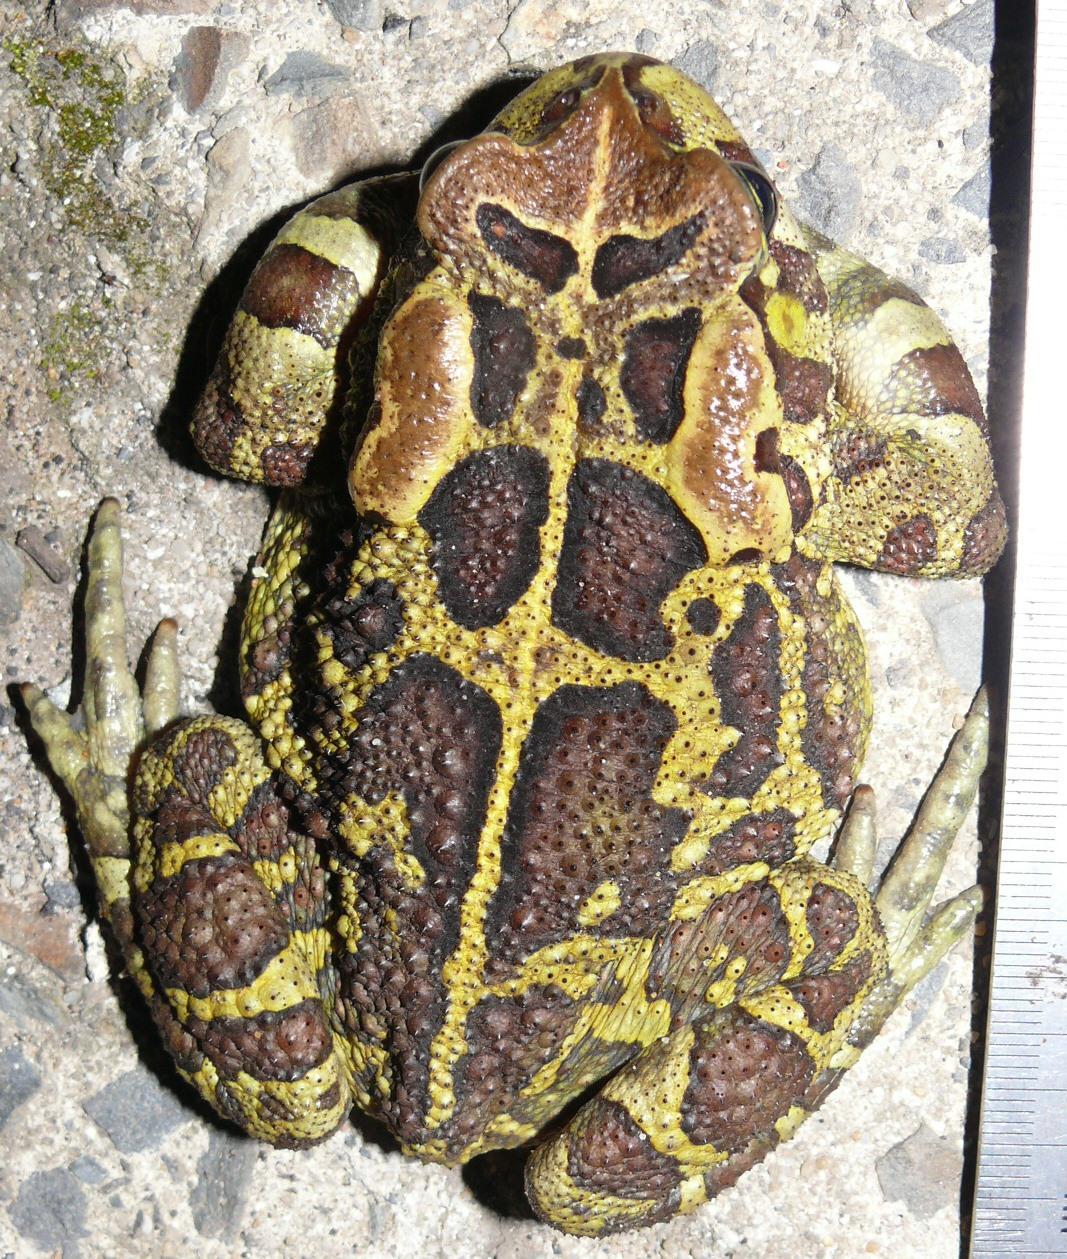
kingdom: Animalia
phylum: Chordata
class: Amphibia
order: Anura
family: Bufonidae
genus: Sclerophrys
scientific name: Sclerophrys pantherina
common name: Panther toad
